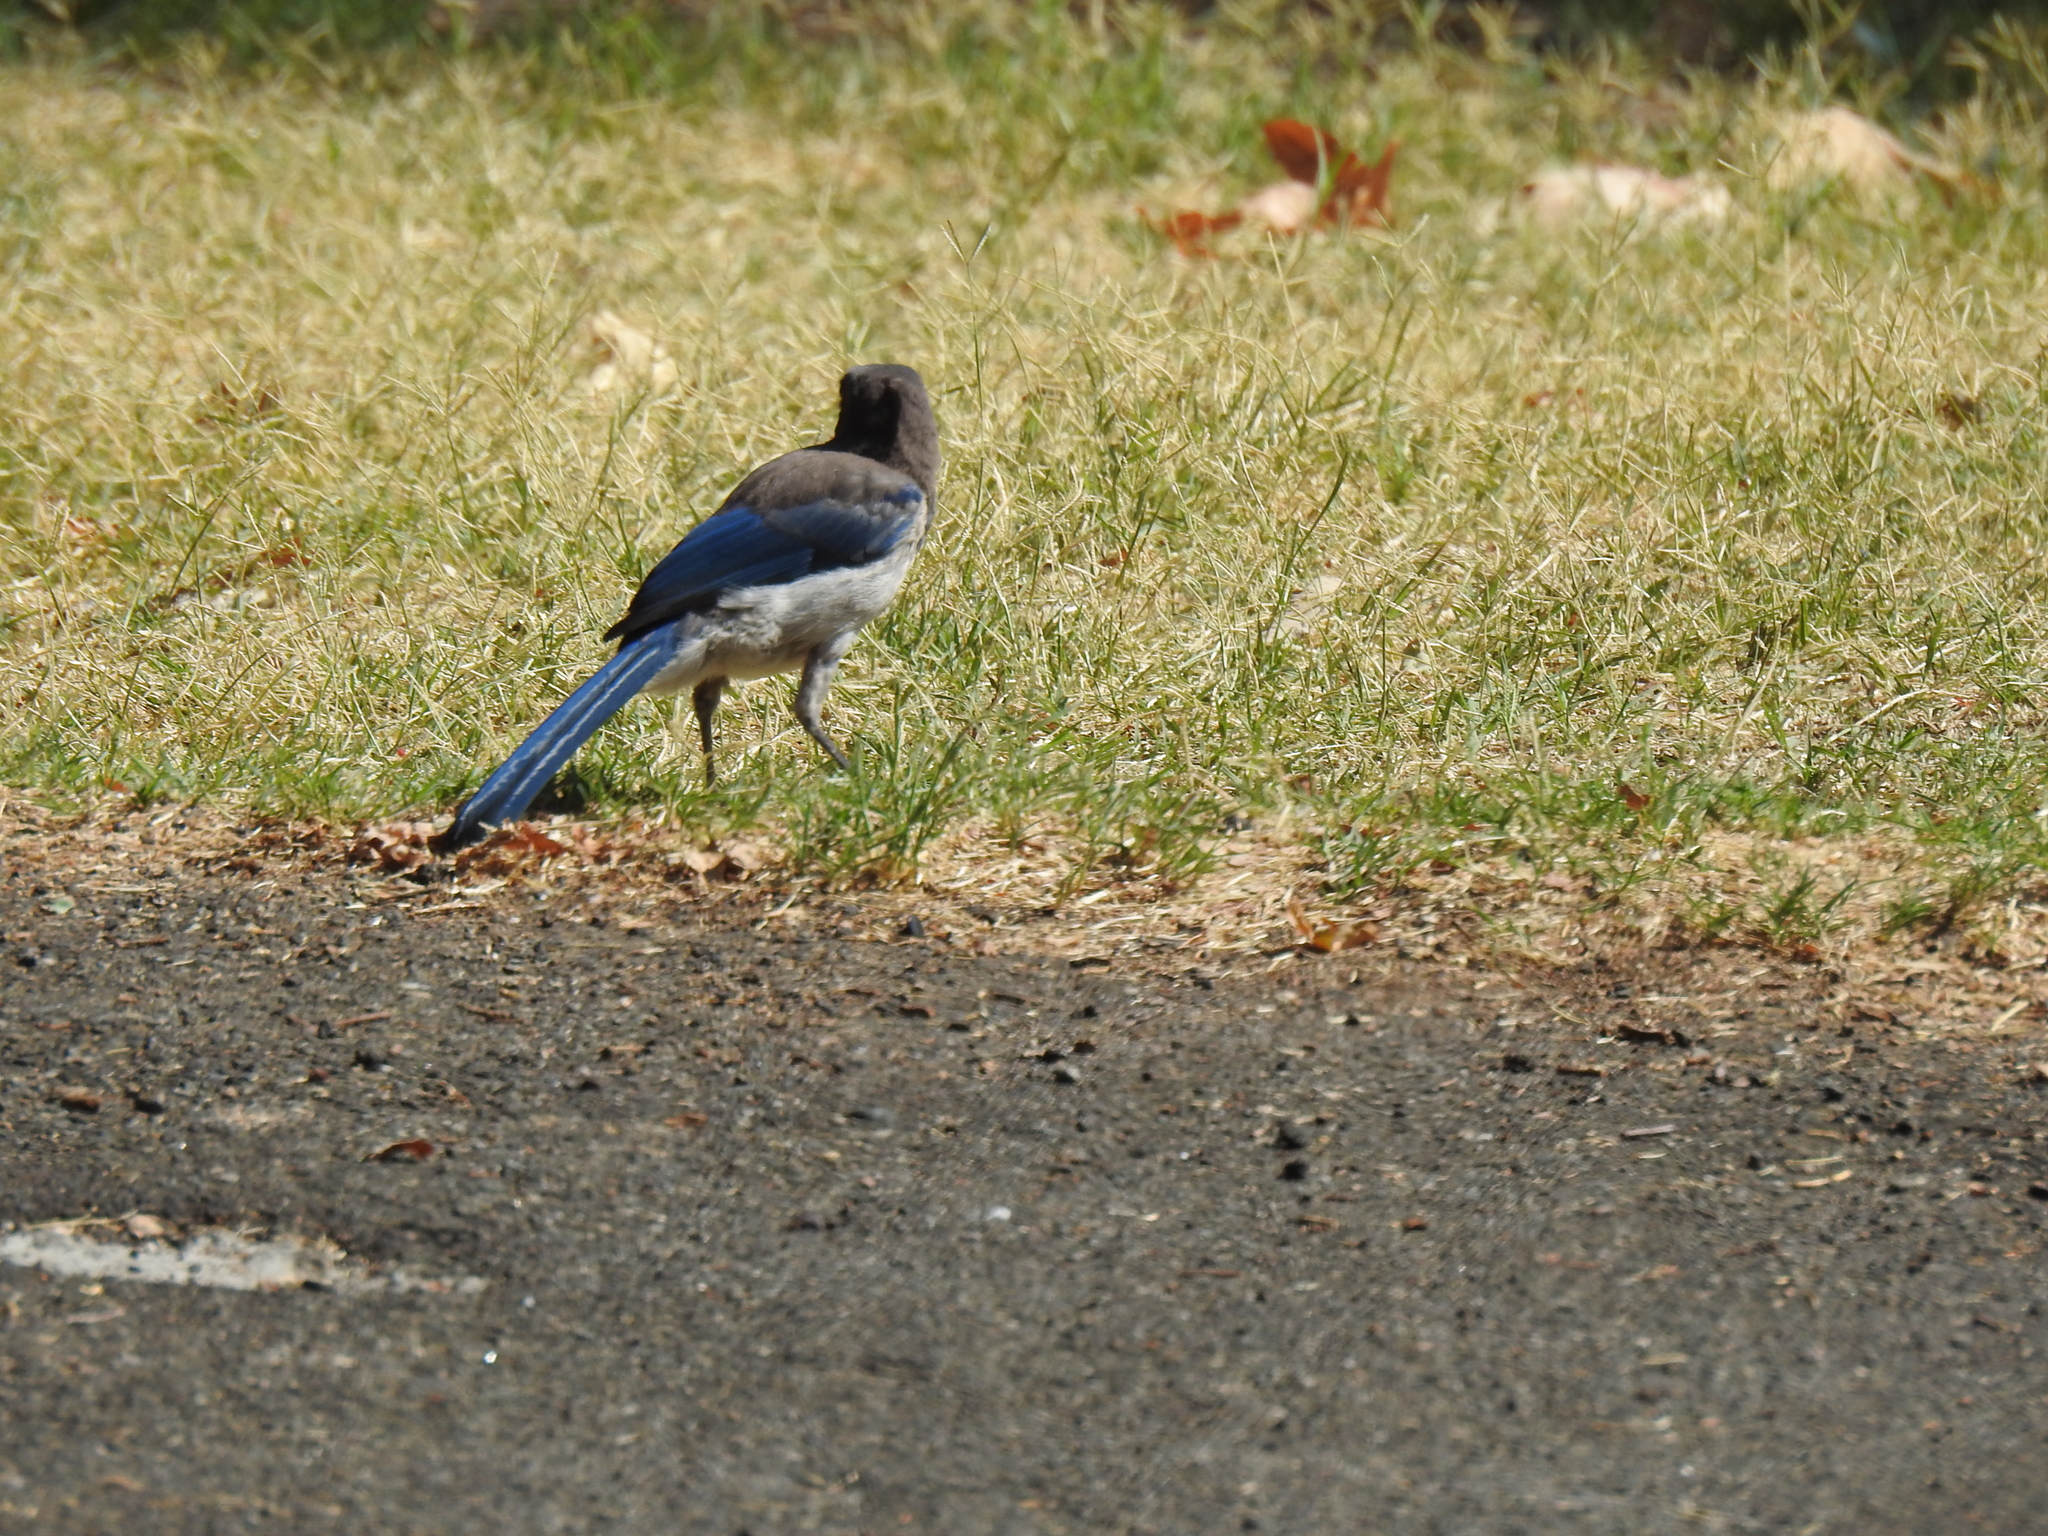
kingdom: Animalia
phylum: Chordata
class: Aves
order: Passeriformes
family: Corvidae
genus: Aphelocoma
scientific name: Aphelocoma californica
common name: California scrub-jay
